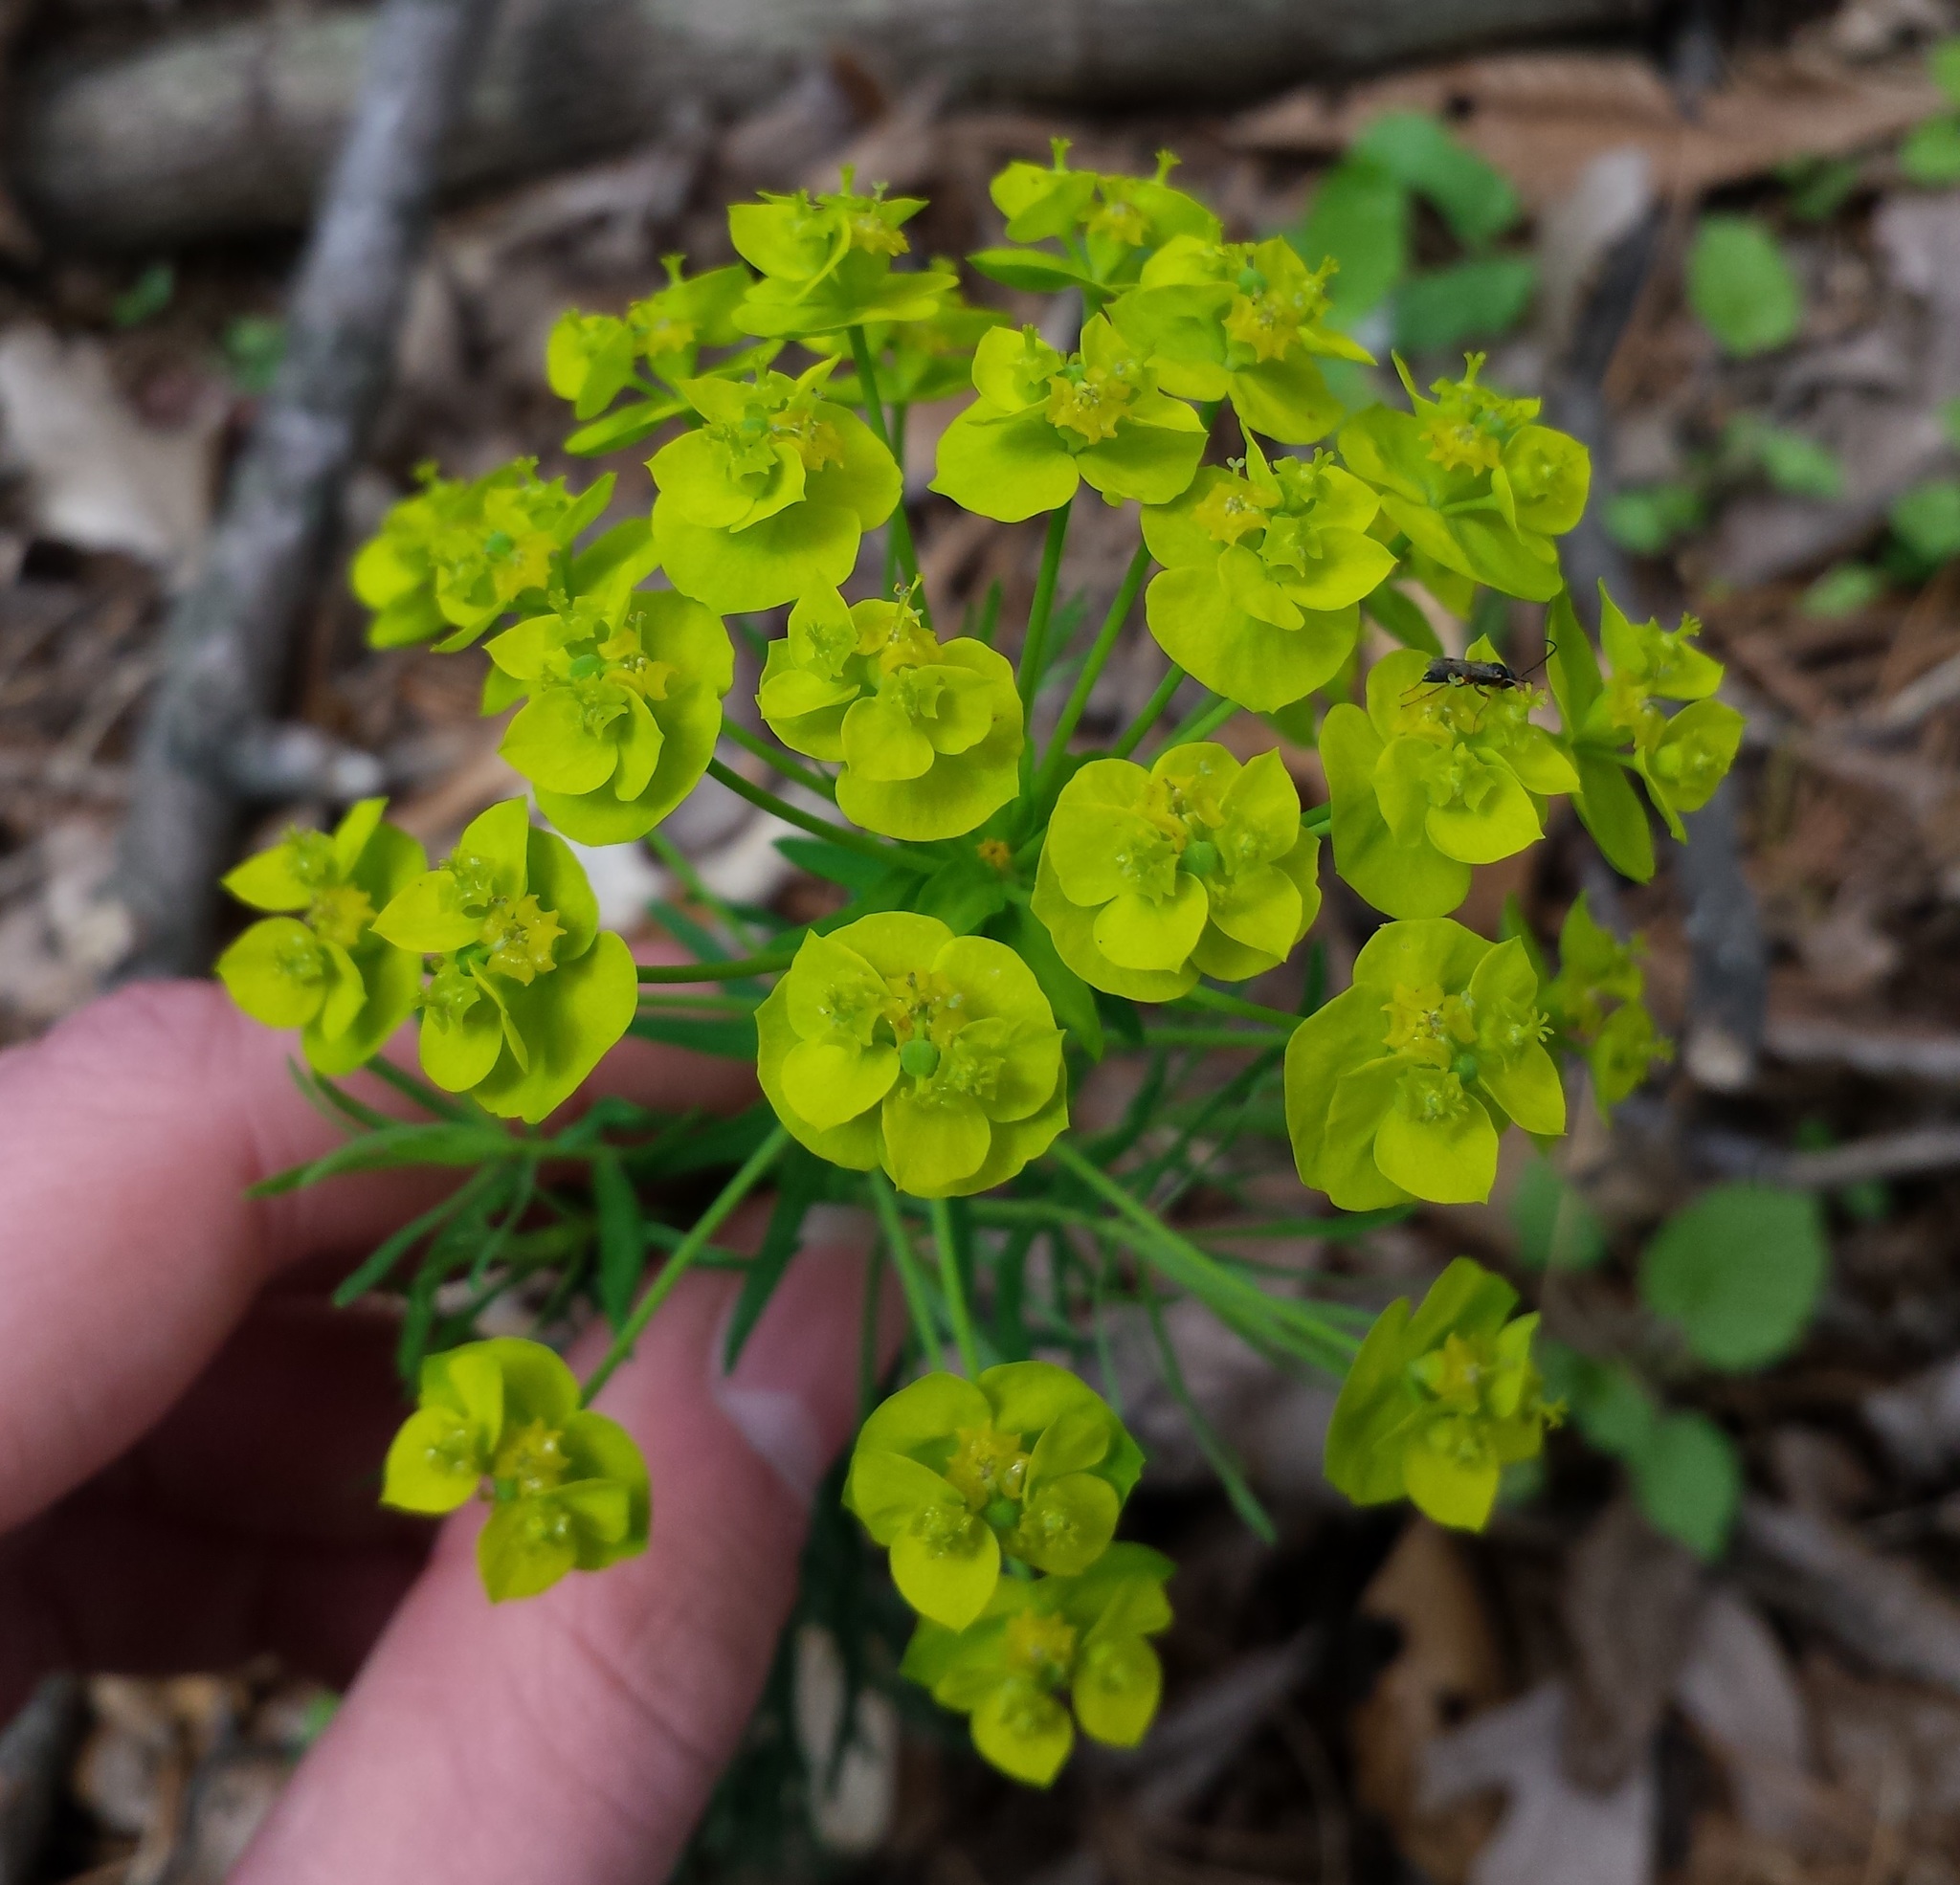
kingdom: Plantae
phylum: Tracheophyta
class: Magnoliopsida
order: Malpighiales
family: Euphorbiaceae
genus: Euphorbia
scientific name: Euphorbia cyparissias
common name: Cypress spurge
